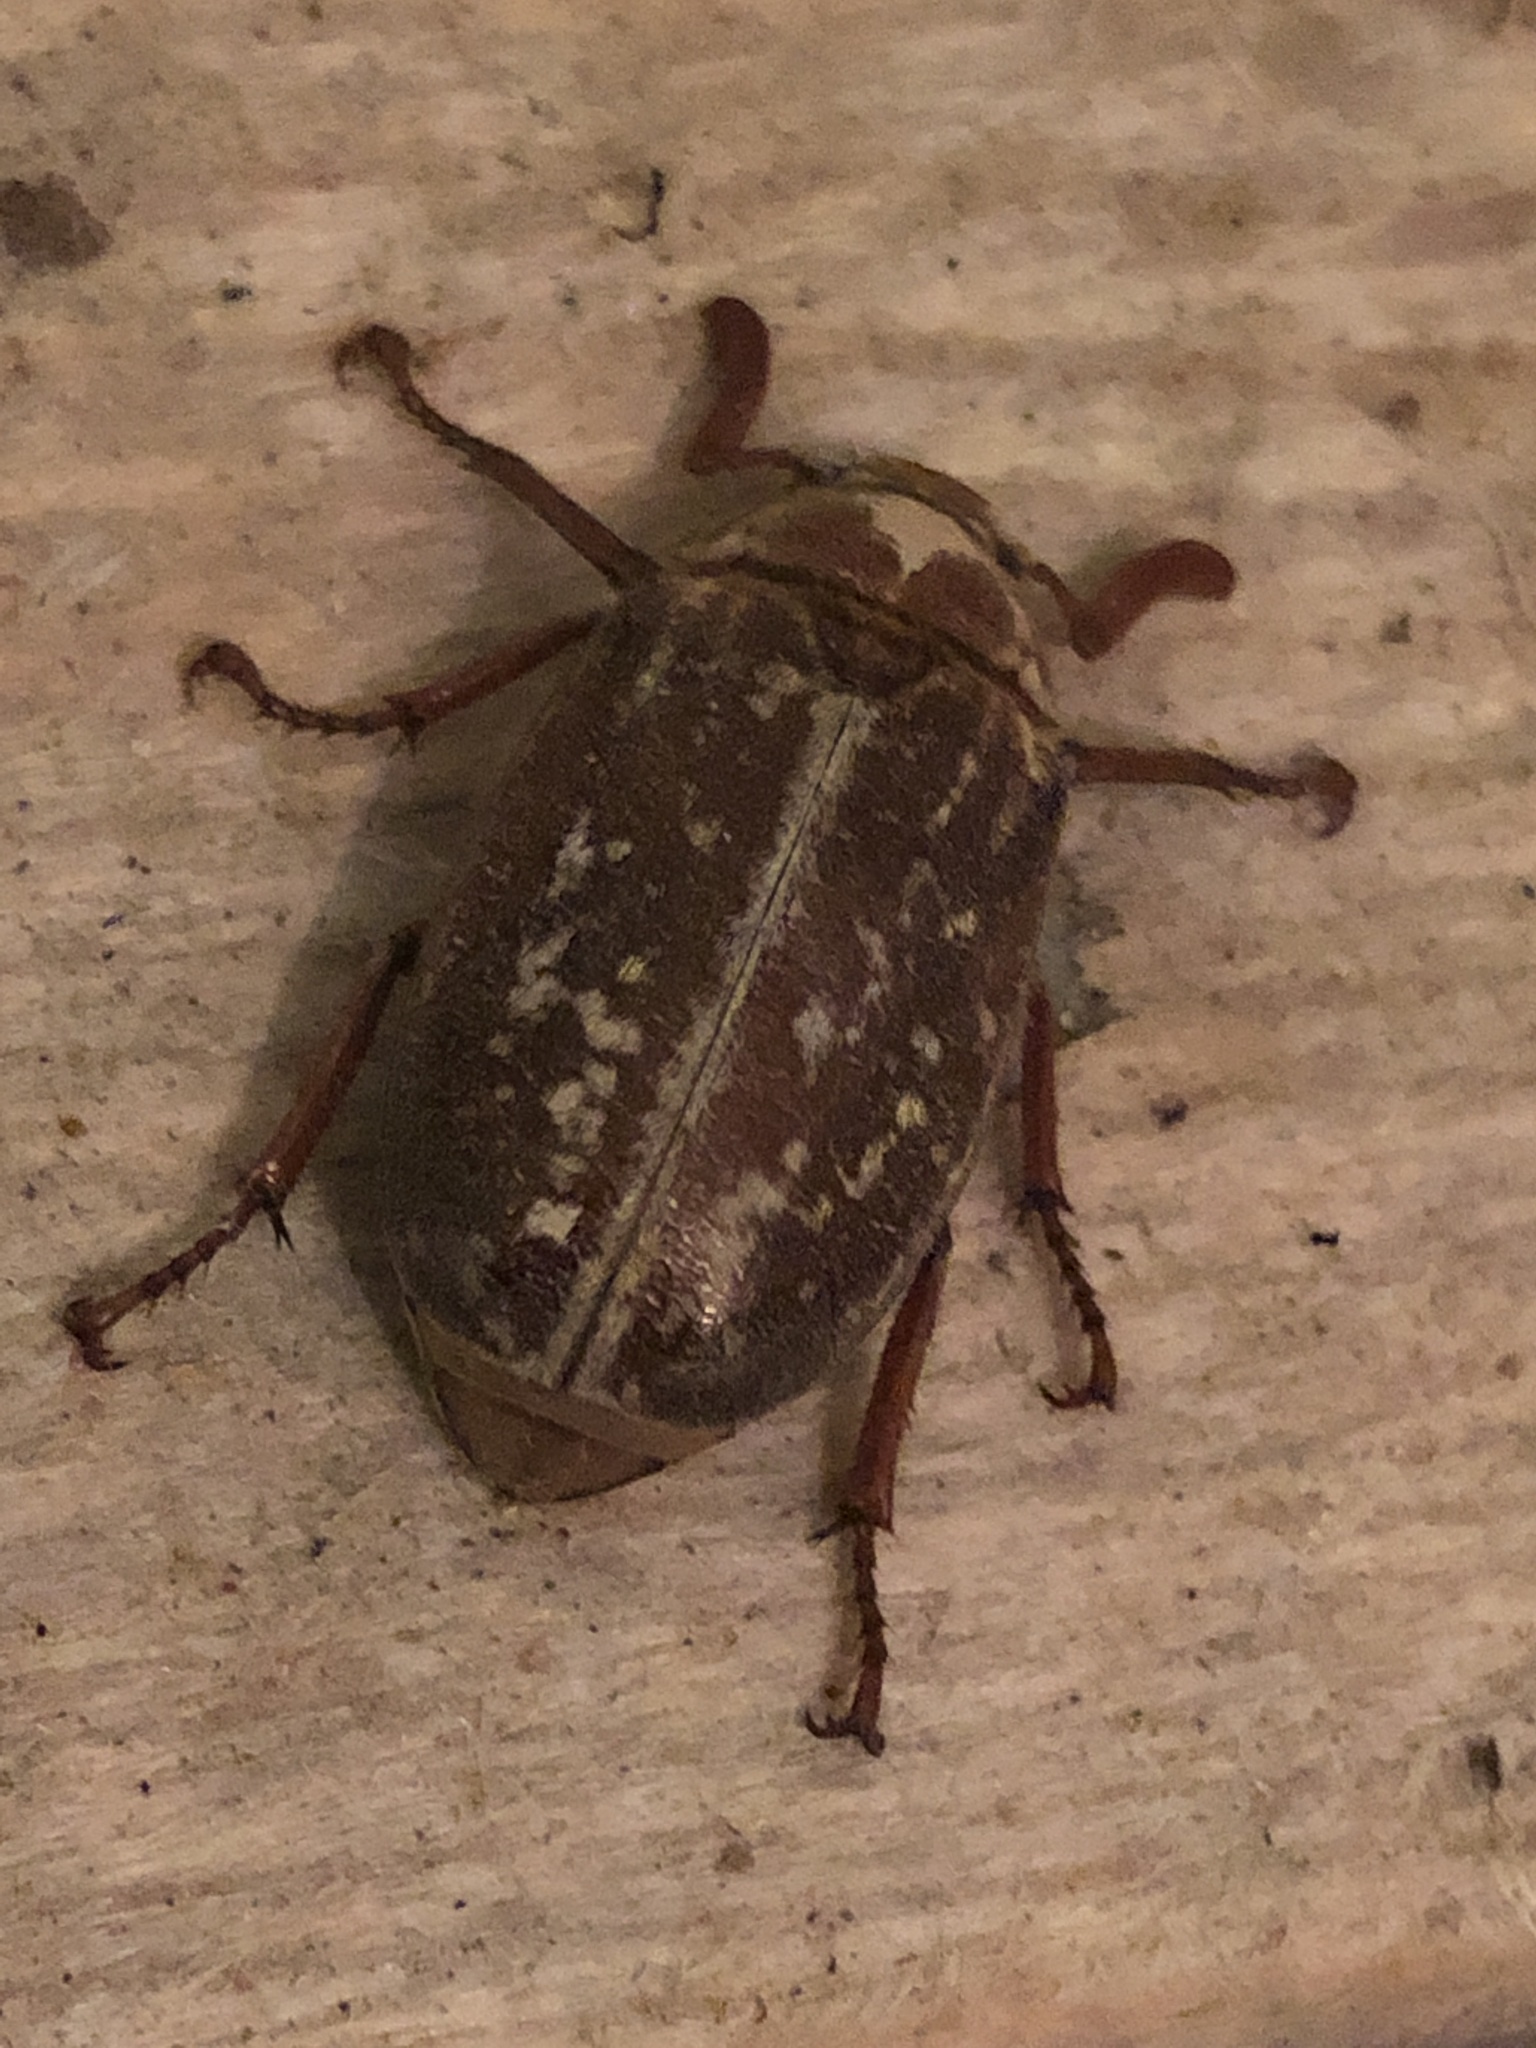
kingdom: Animalia
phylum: Arthropoda
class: Insecta
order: Coleoptera
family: Scarabaeidae
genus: Polyphylla
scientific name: Polyphylla variolosa
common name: Variegated june beetle
